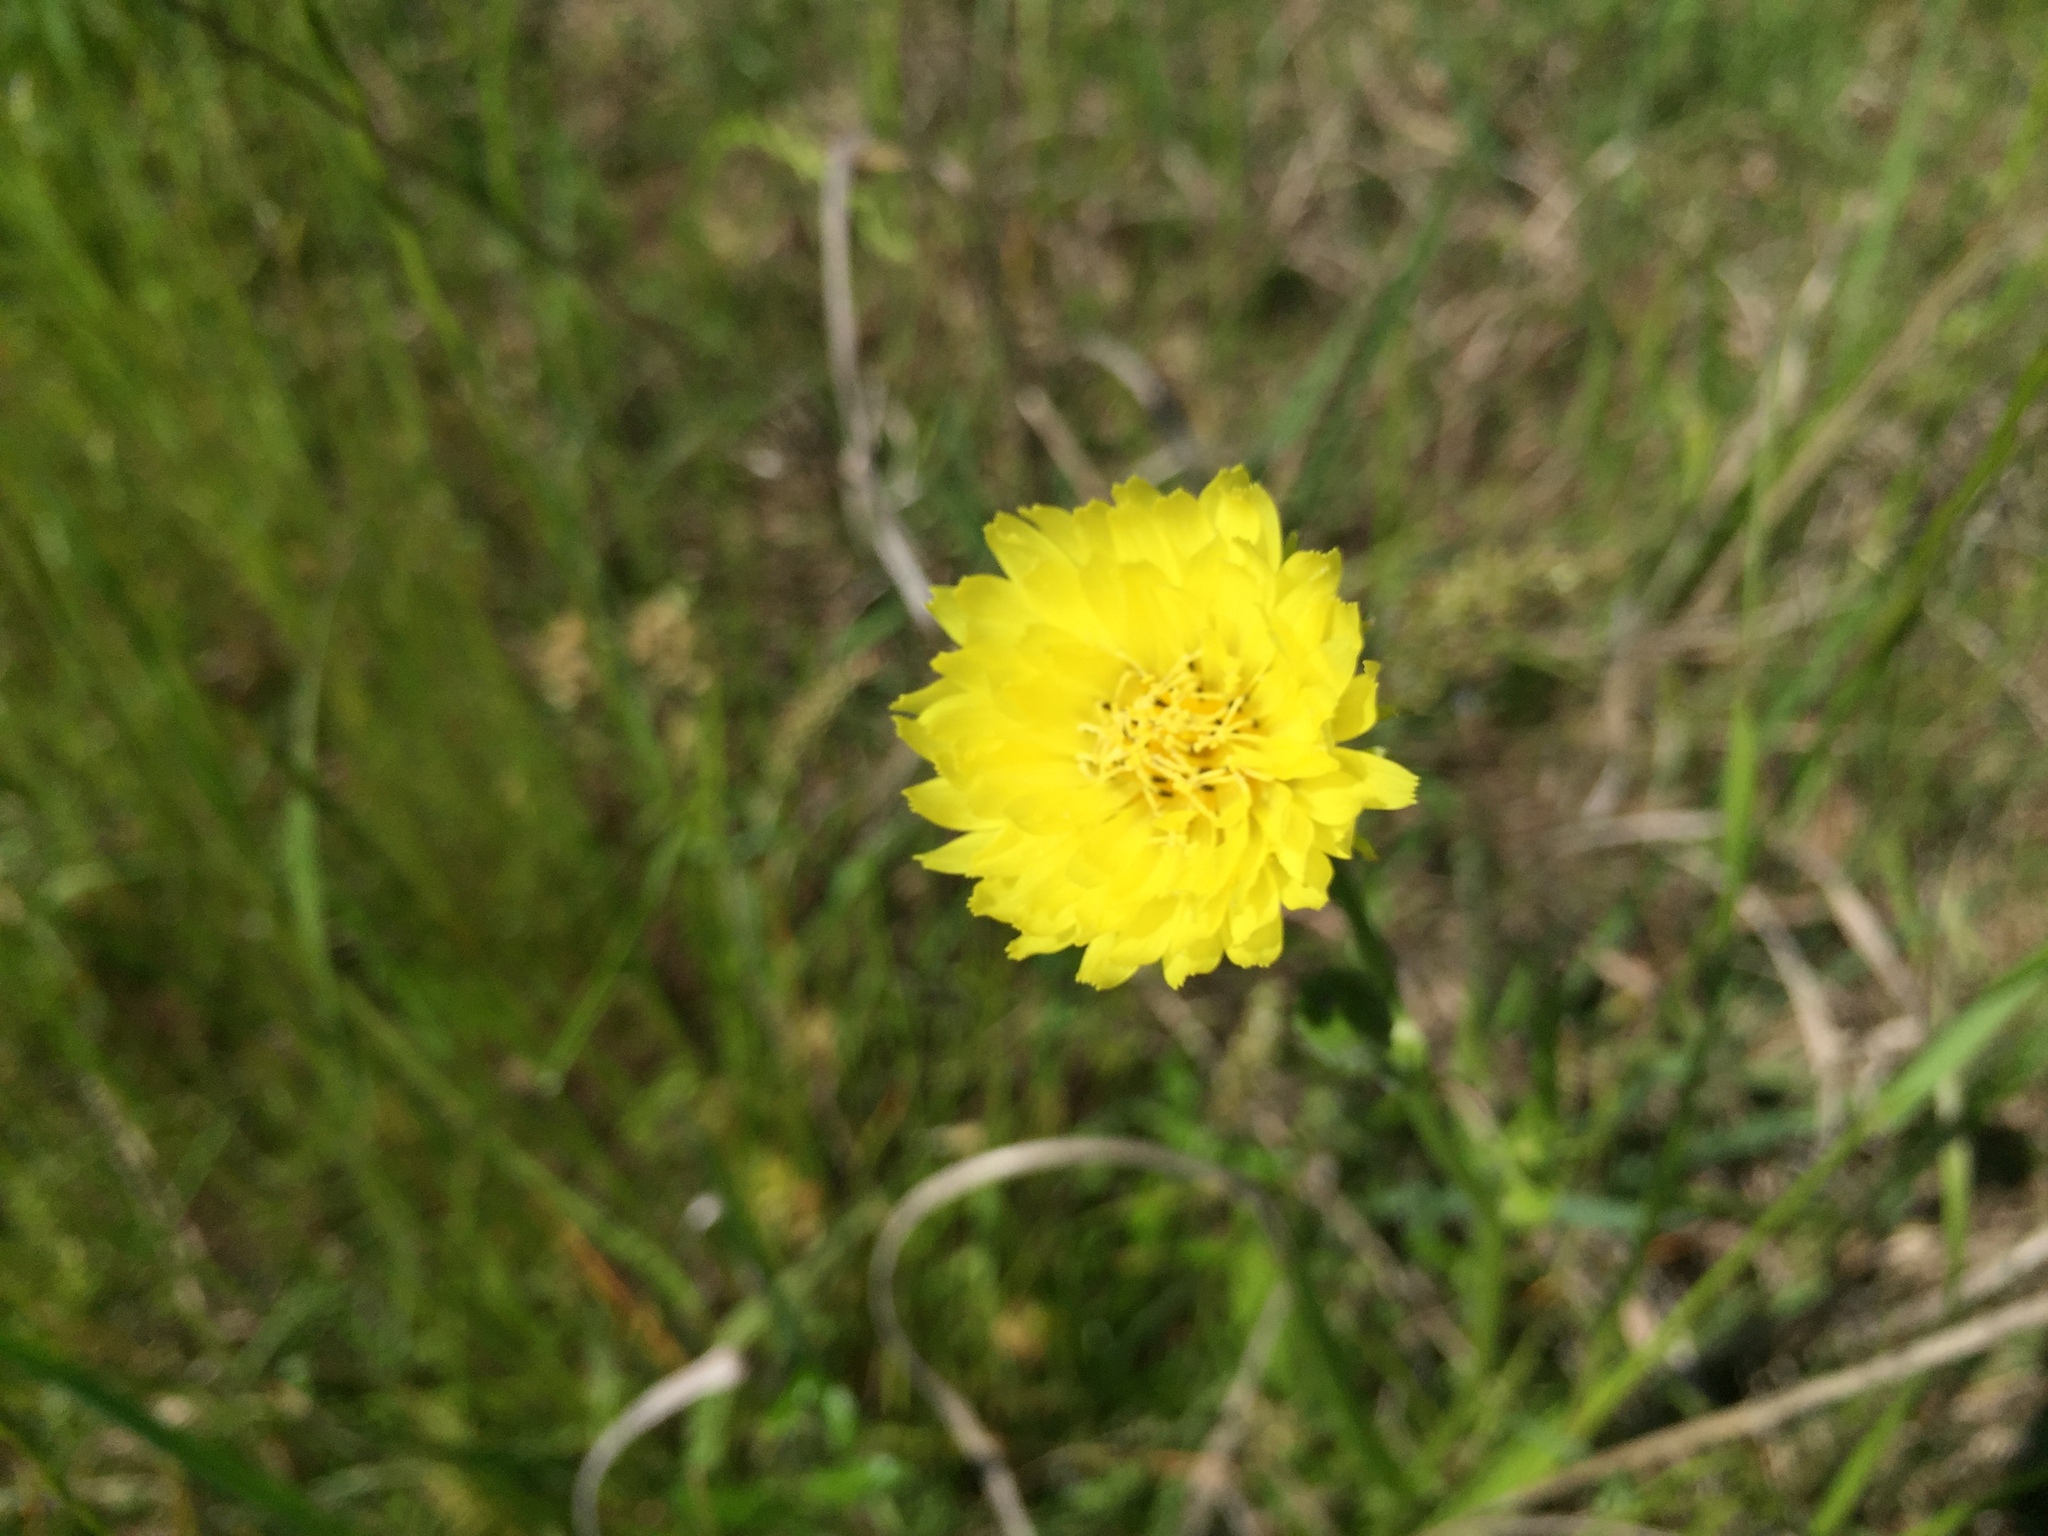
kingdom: Plantae
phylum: Tracheophyta
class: Magnoliopsida
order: Asterales
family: Asteraceae
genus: Pyrrhopappus
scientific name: Pyrrhopappus carolinianus
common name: Carolina desert-chicory
